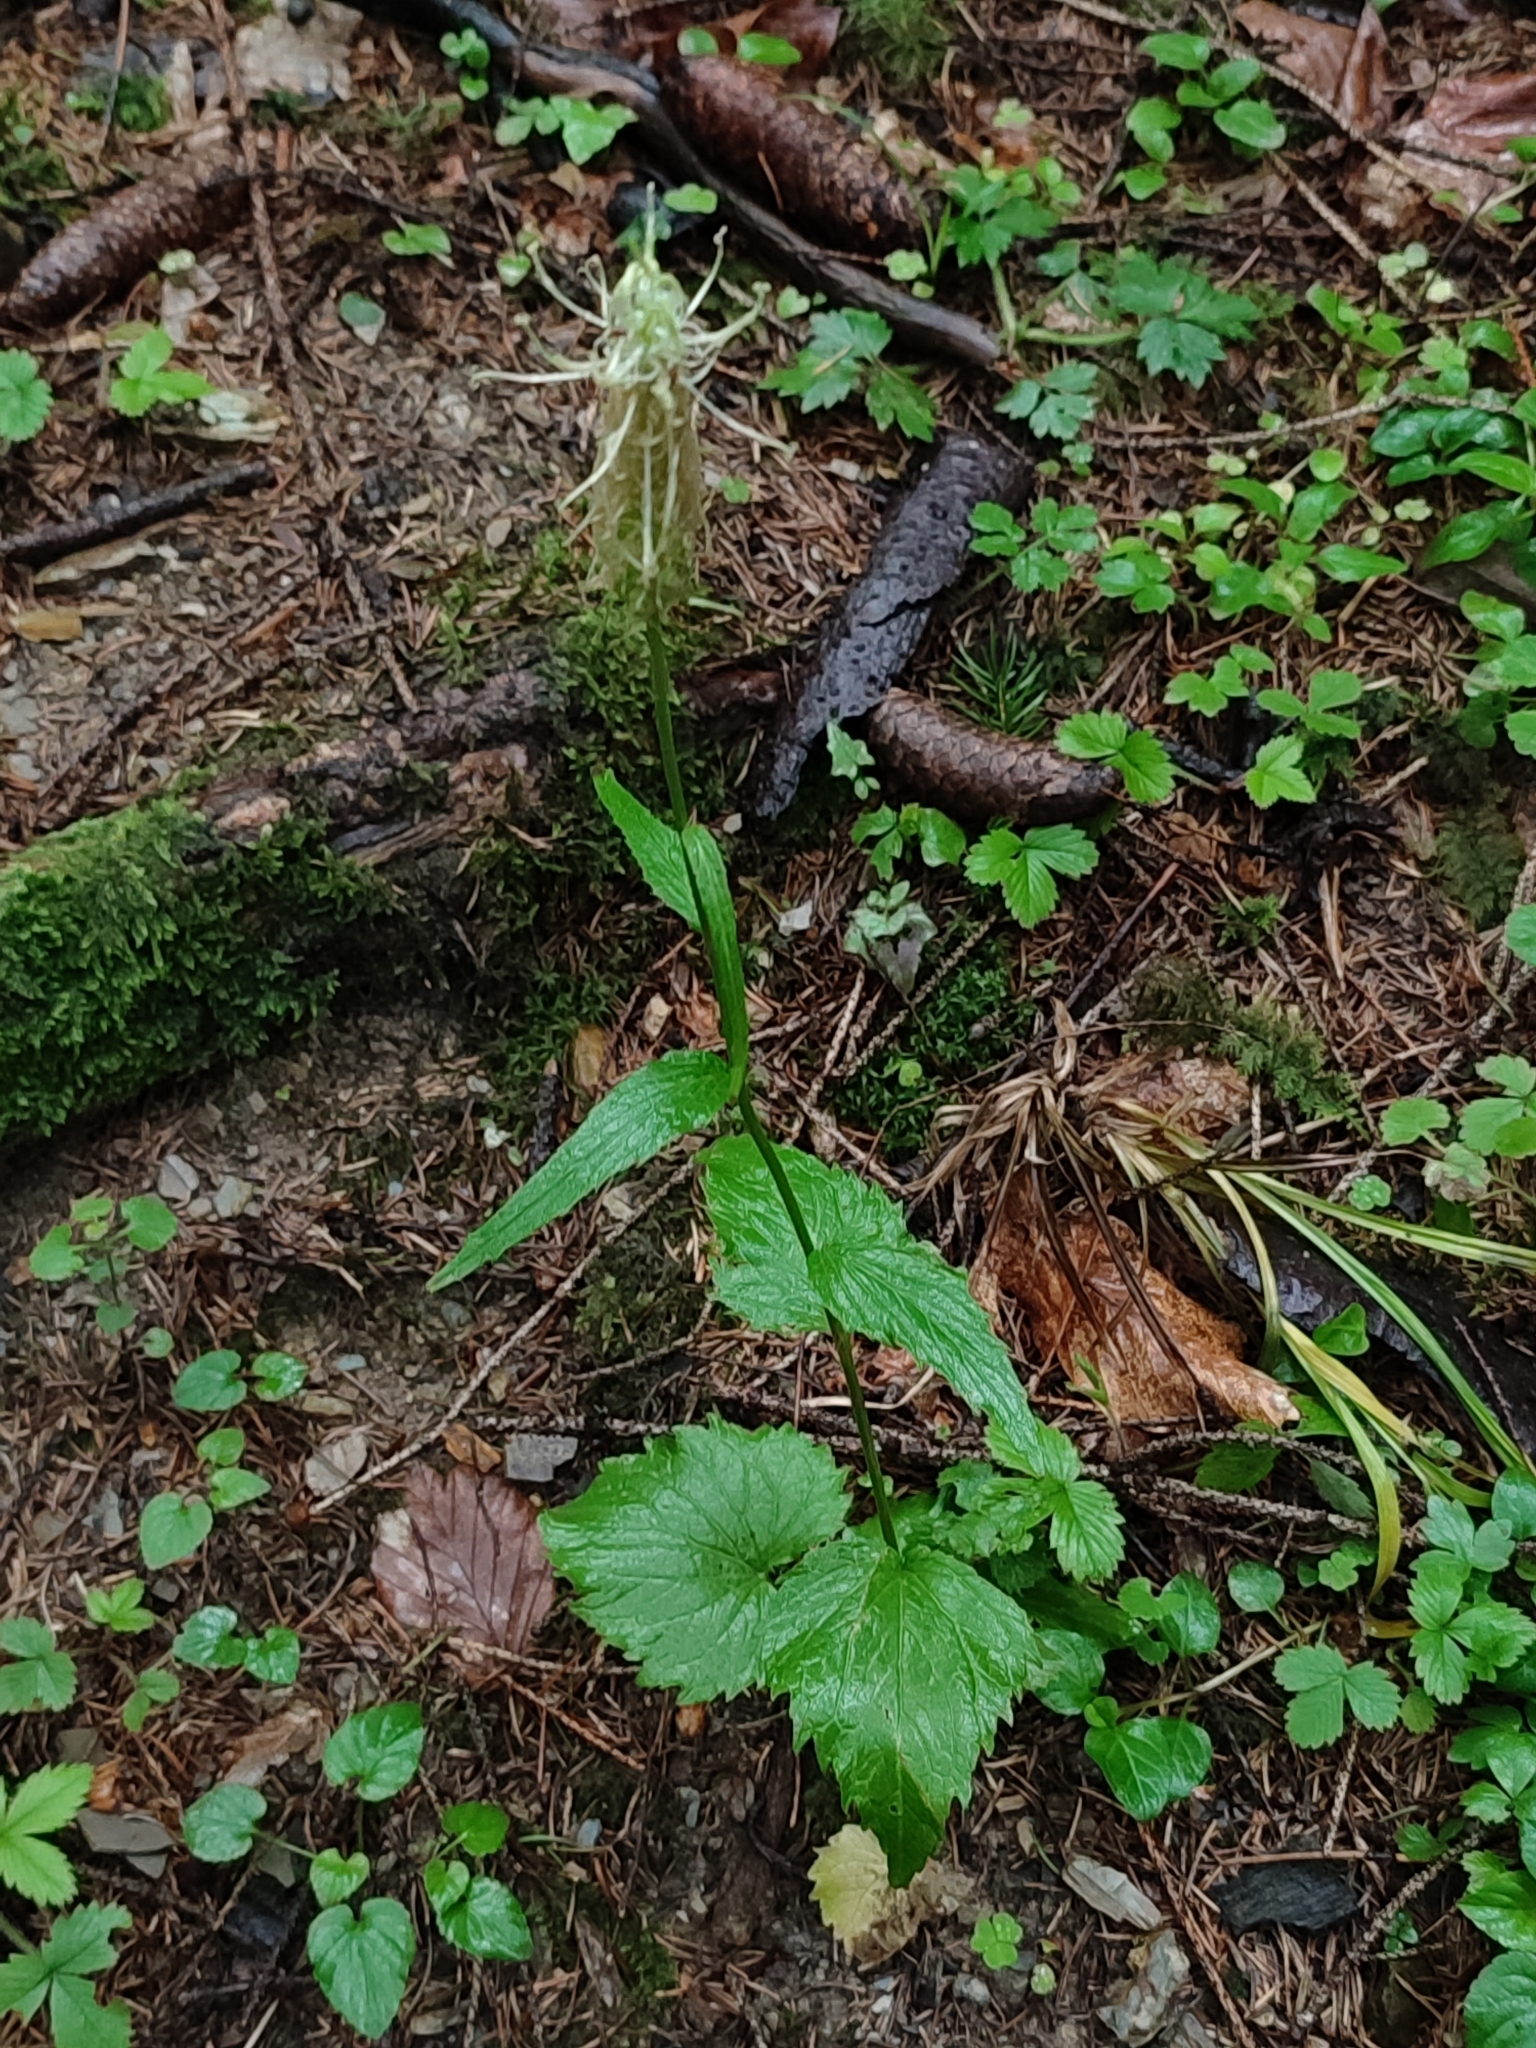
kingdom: Plantae
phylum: Tracheophyta
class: Magnoliopsida
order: Asterales
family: Campanulaceae
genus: Phyteuma
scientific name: Phyteuma spicatum
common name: Spiked rampion
